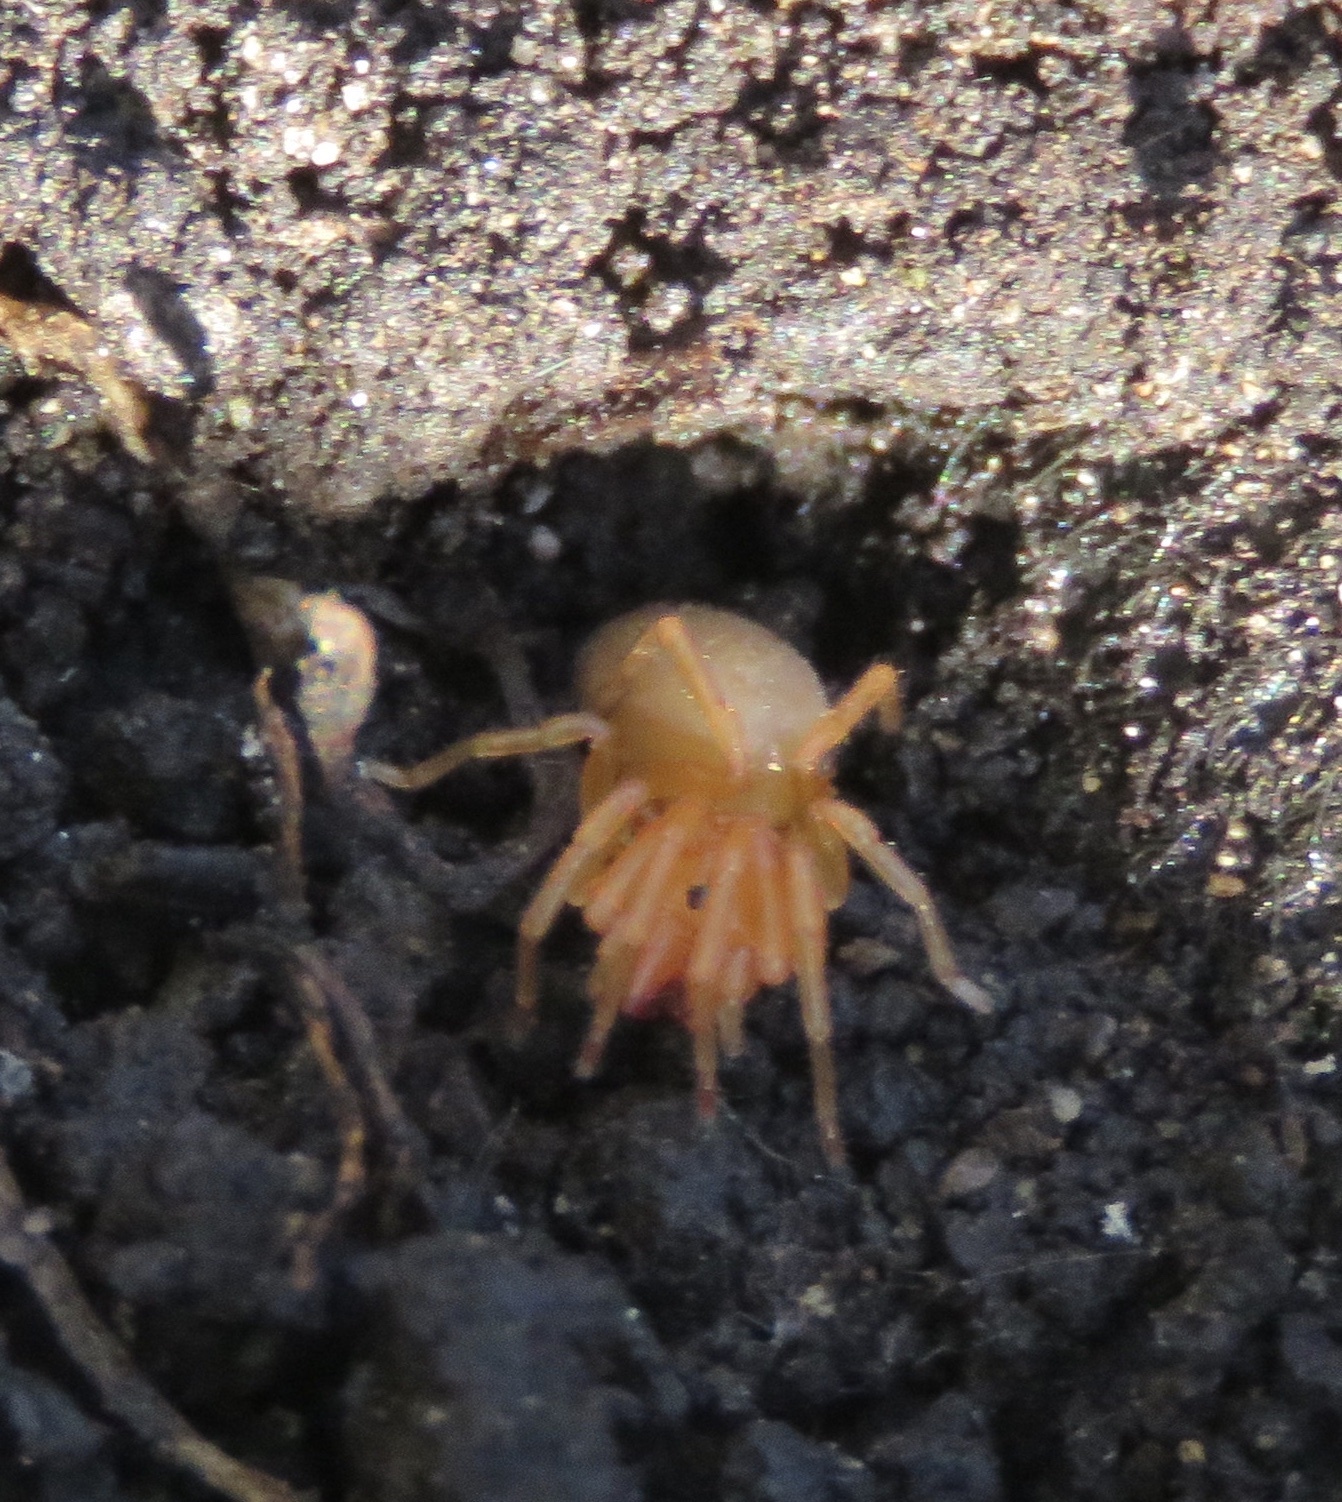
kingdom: Animalia
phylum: Arthropoda
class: Arachnida
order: Araneae
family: Dysderidae
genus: Dysdera
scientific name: Dysdera crocata
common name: Woodlouse spider
